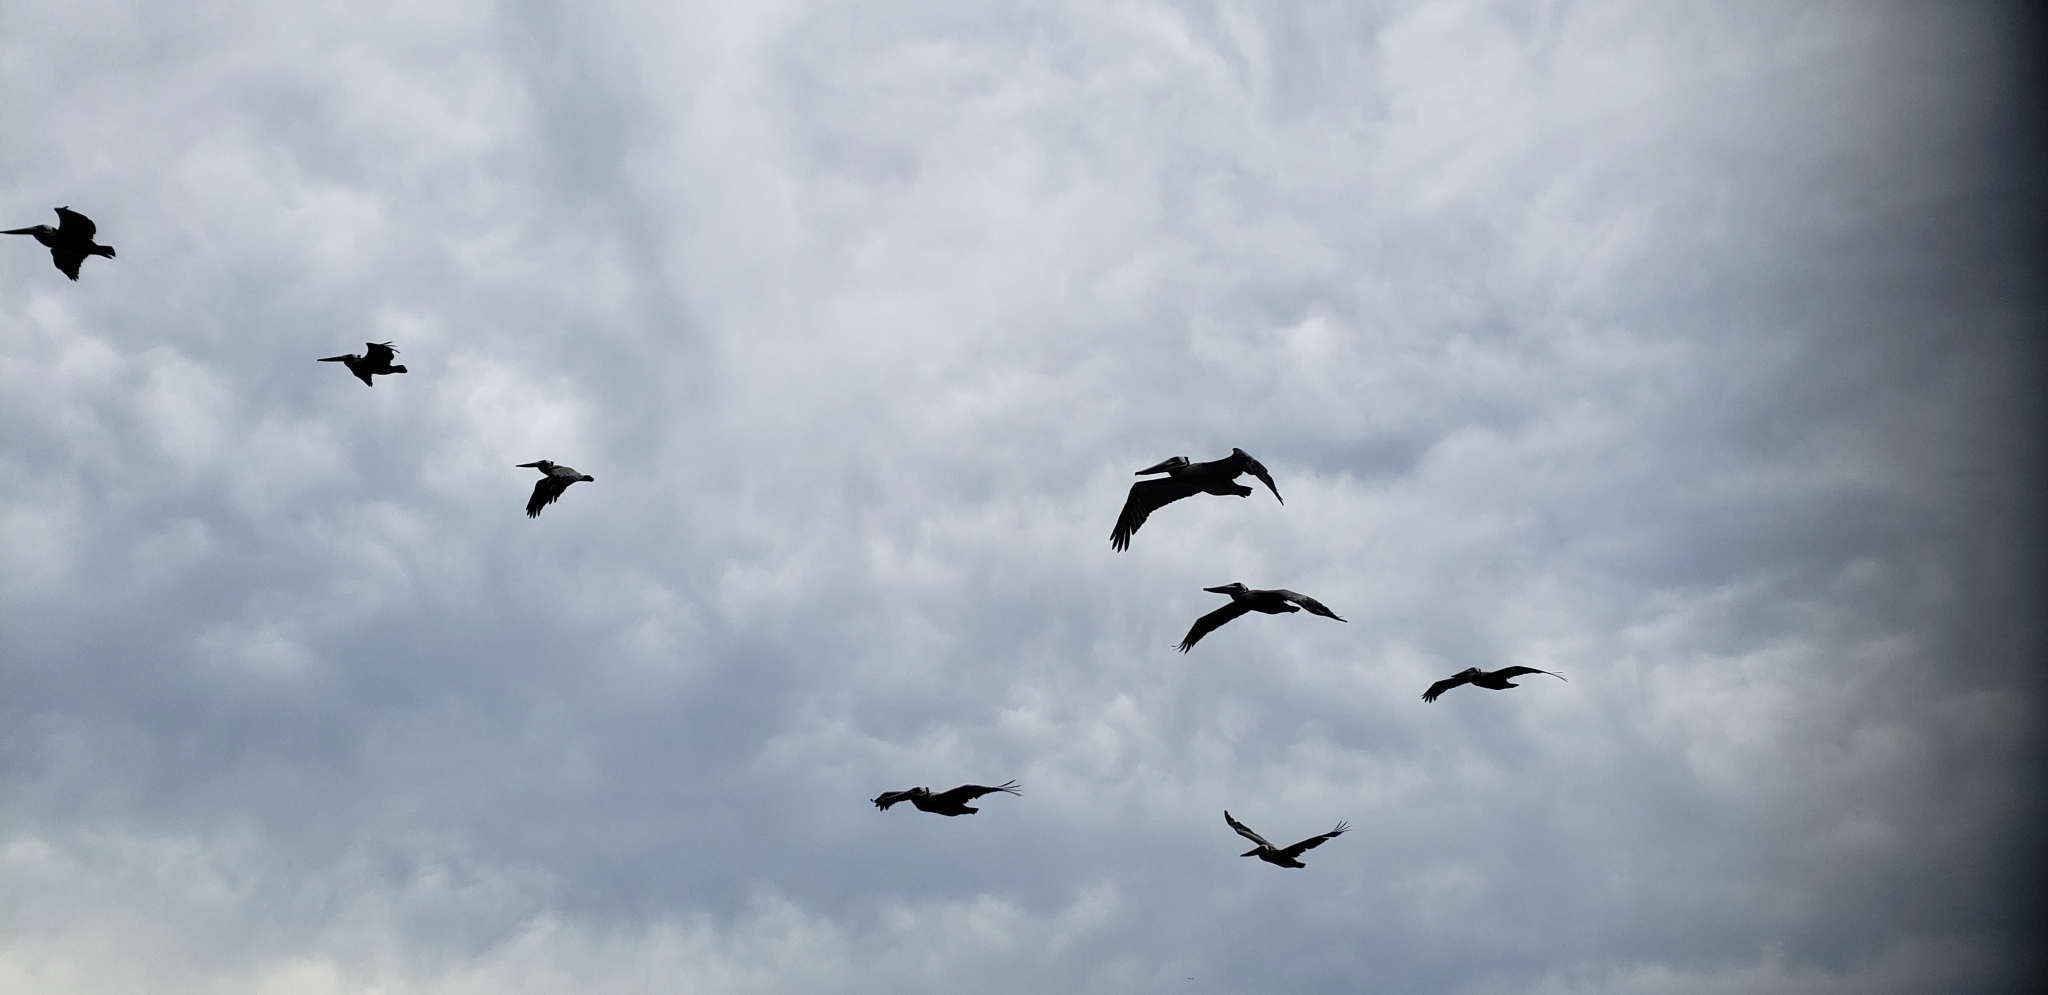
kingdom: Animalia
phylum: Chordata
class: Aves
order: Pelecaniformes
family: Pelecanidae
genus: Pelecanus
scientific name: Pelecanus occidentalis
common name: Brown pelican
